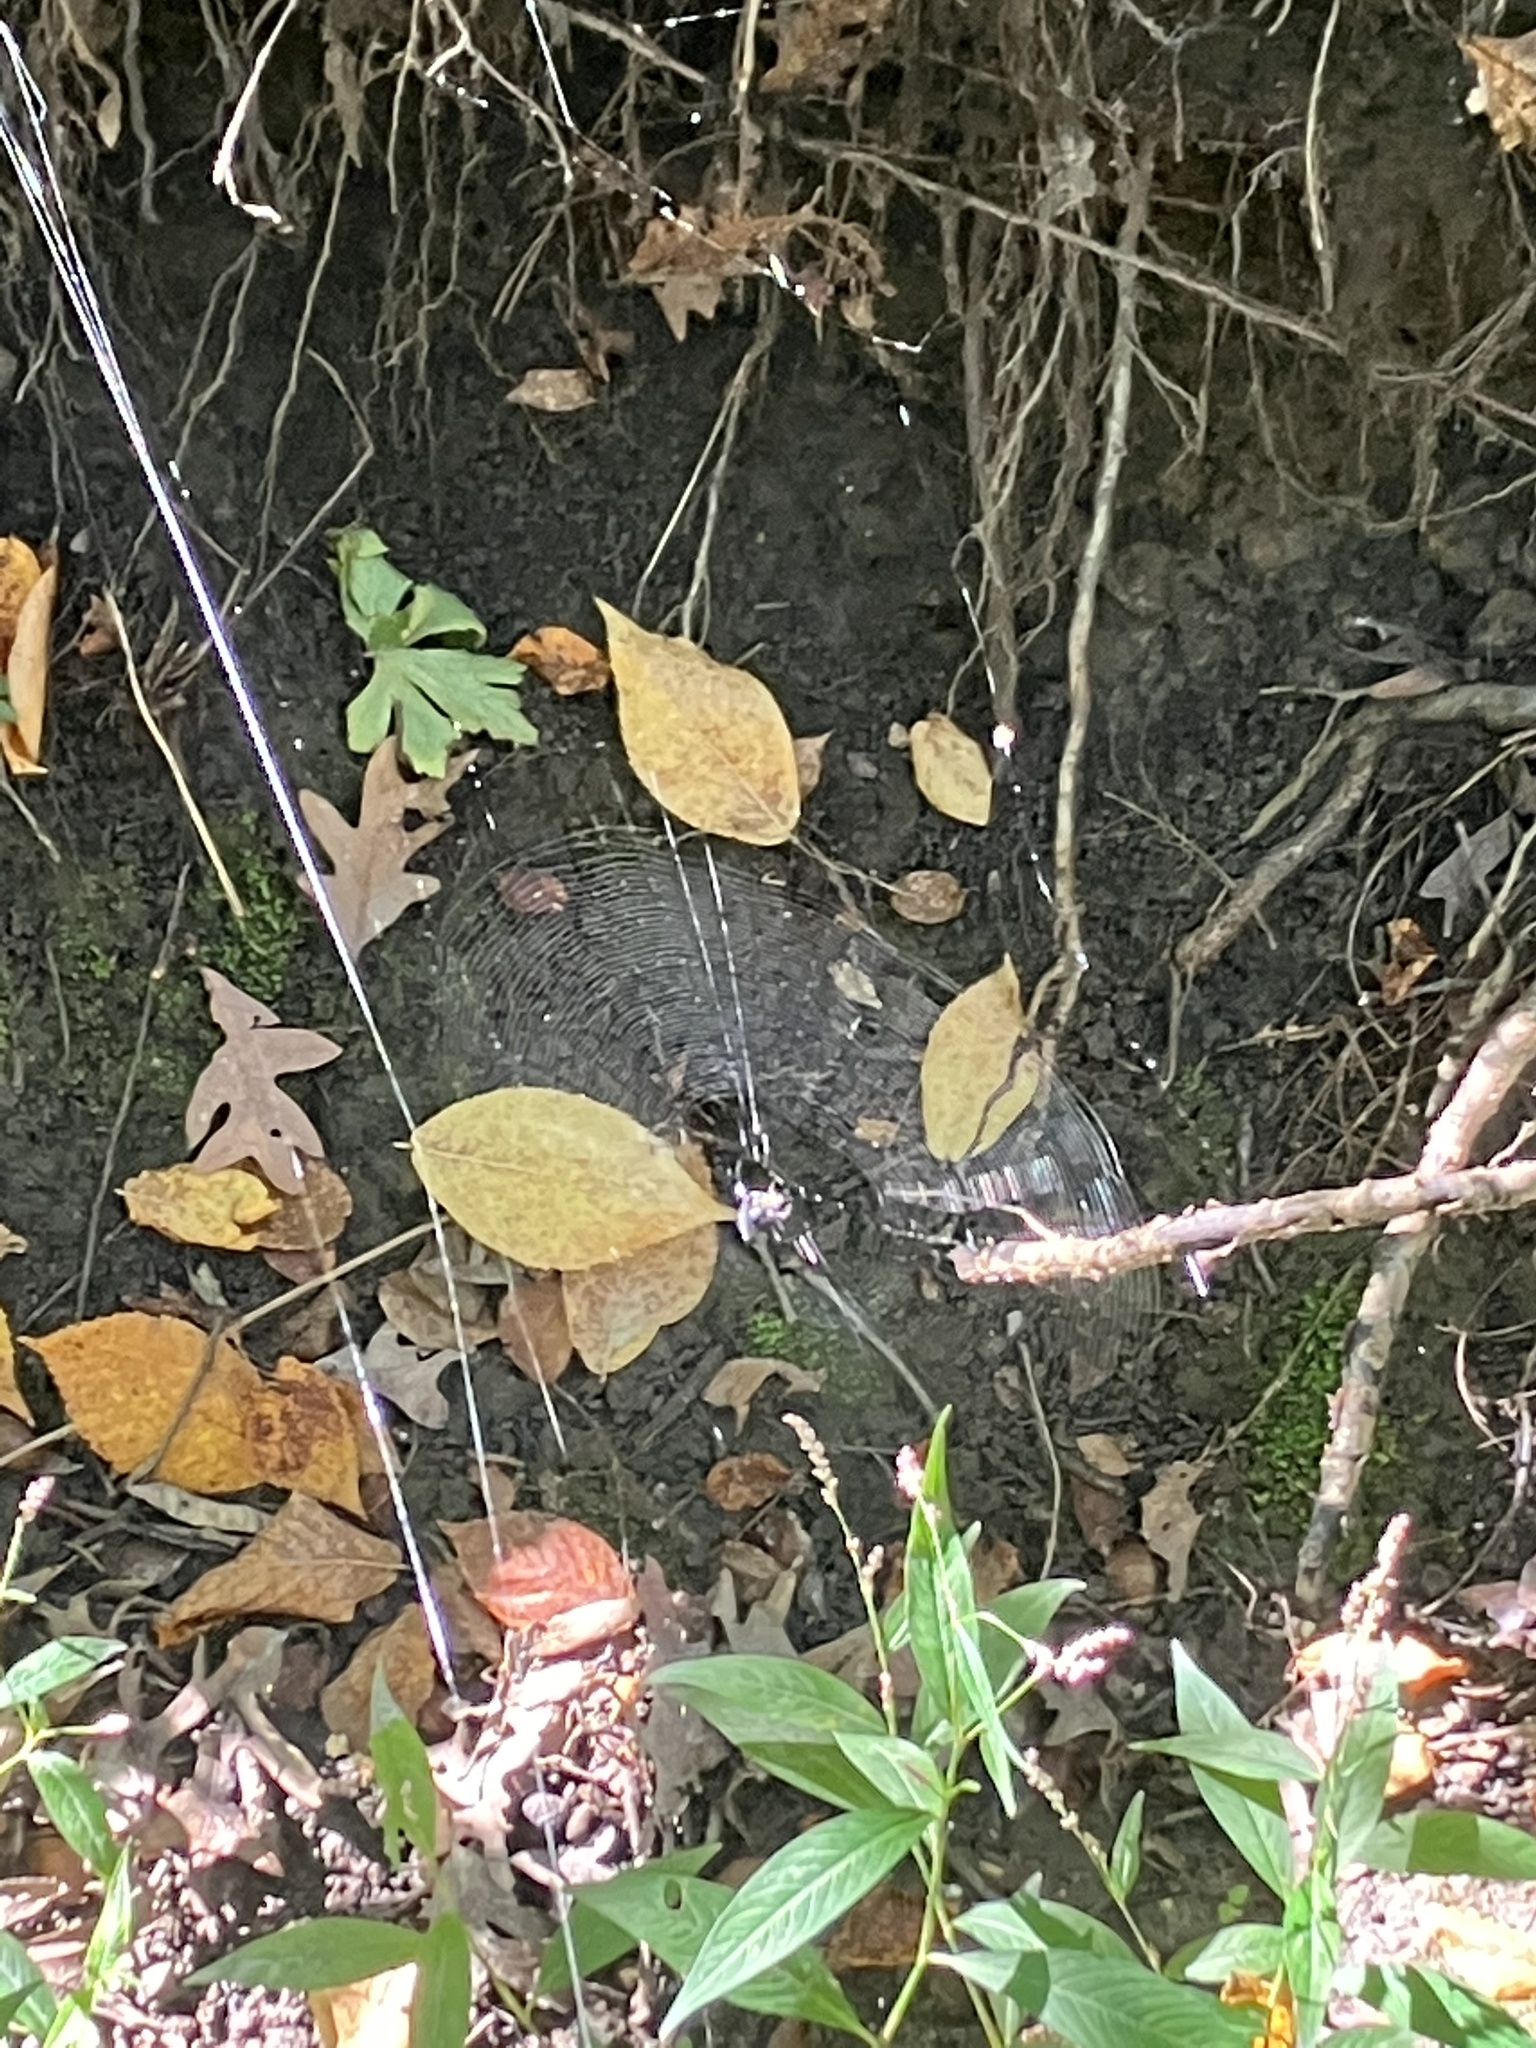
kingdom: Animalia
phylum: Arthropoda
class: Arachnida
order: Araneae
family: Araneidae
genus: Micrathena
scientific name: Micrathena gracilis
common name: Orb weavers
